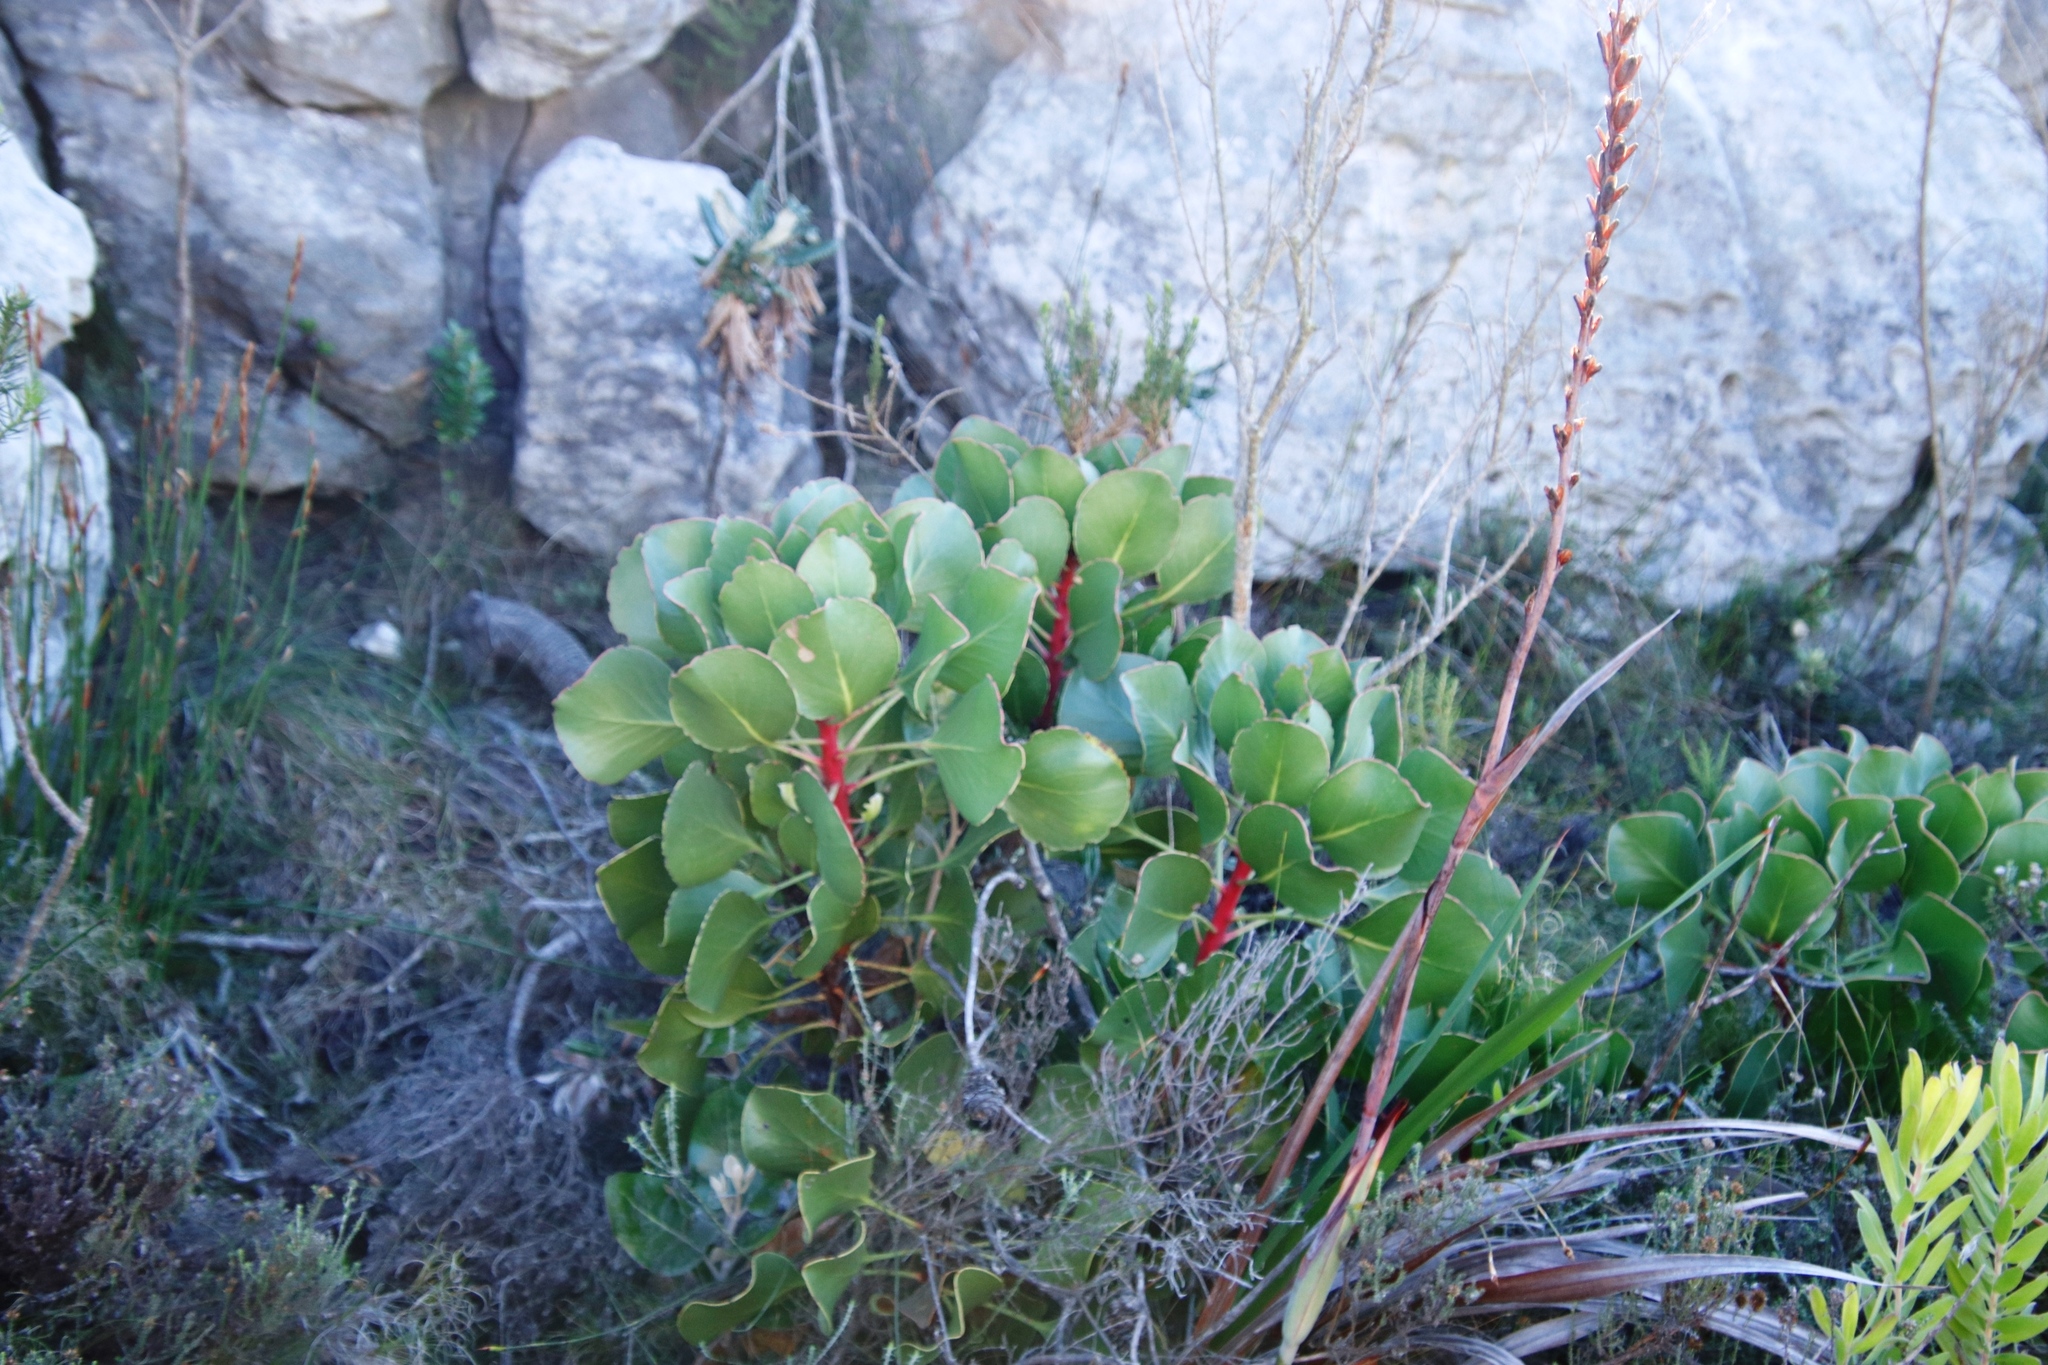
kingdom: Plantae
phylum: Tracheophyta
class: Magnoliopsida
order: Proteales
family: Proteaceae
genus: Protea
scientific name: Protea cynaroides
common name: King protea
